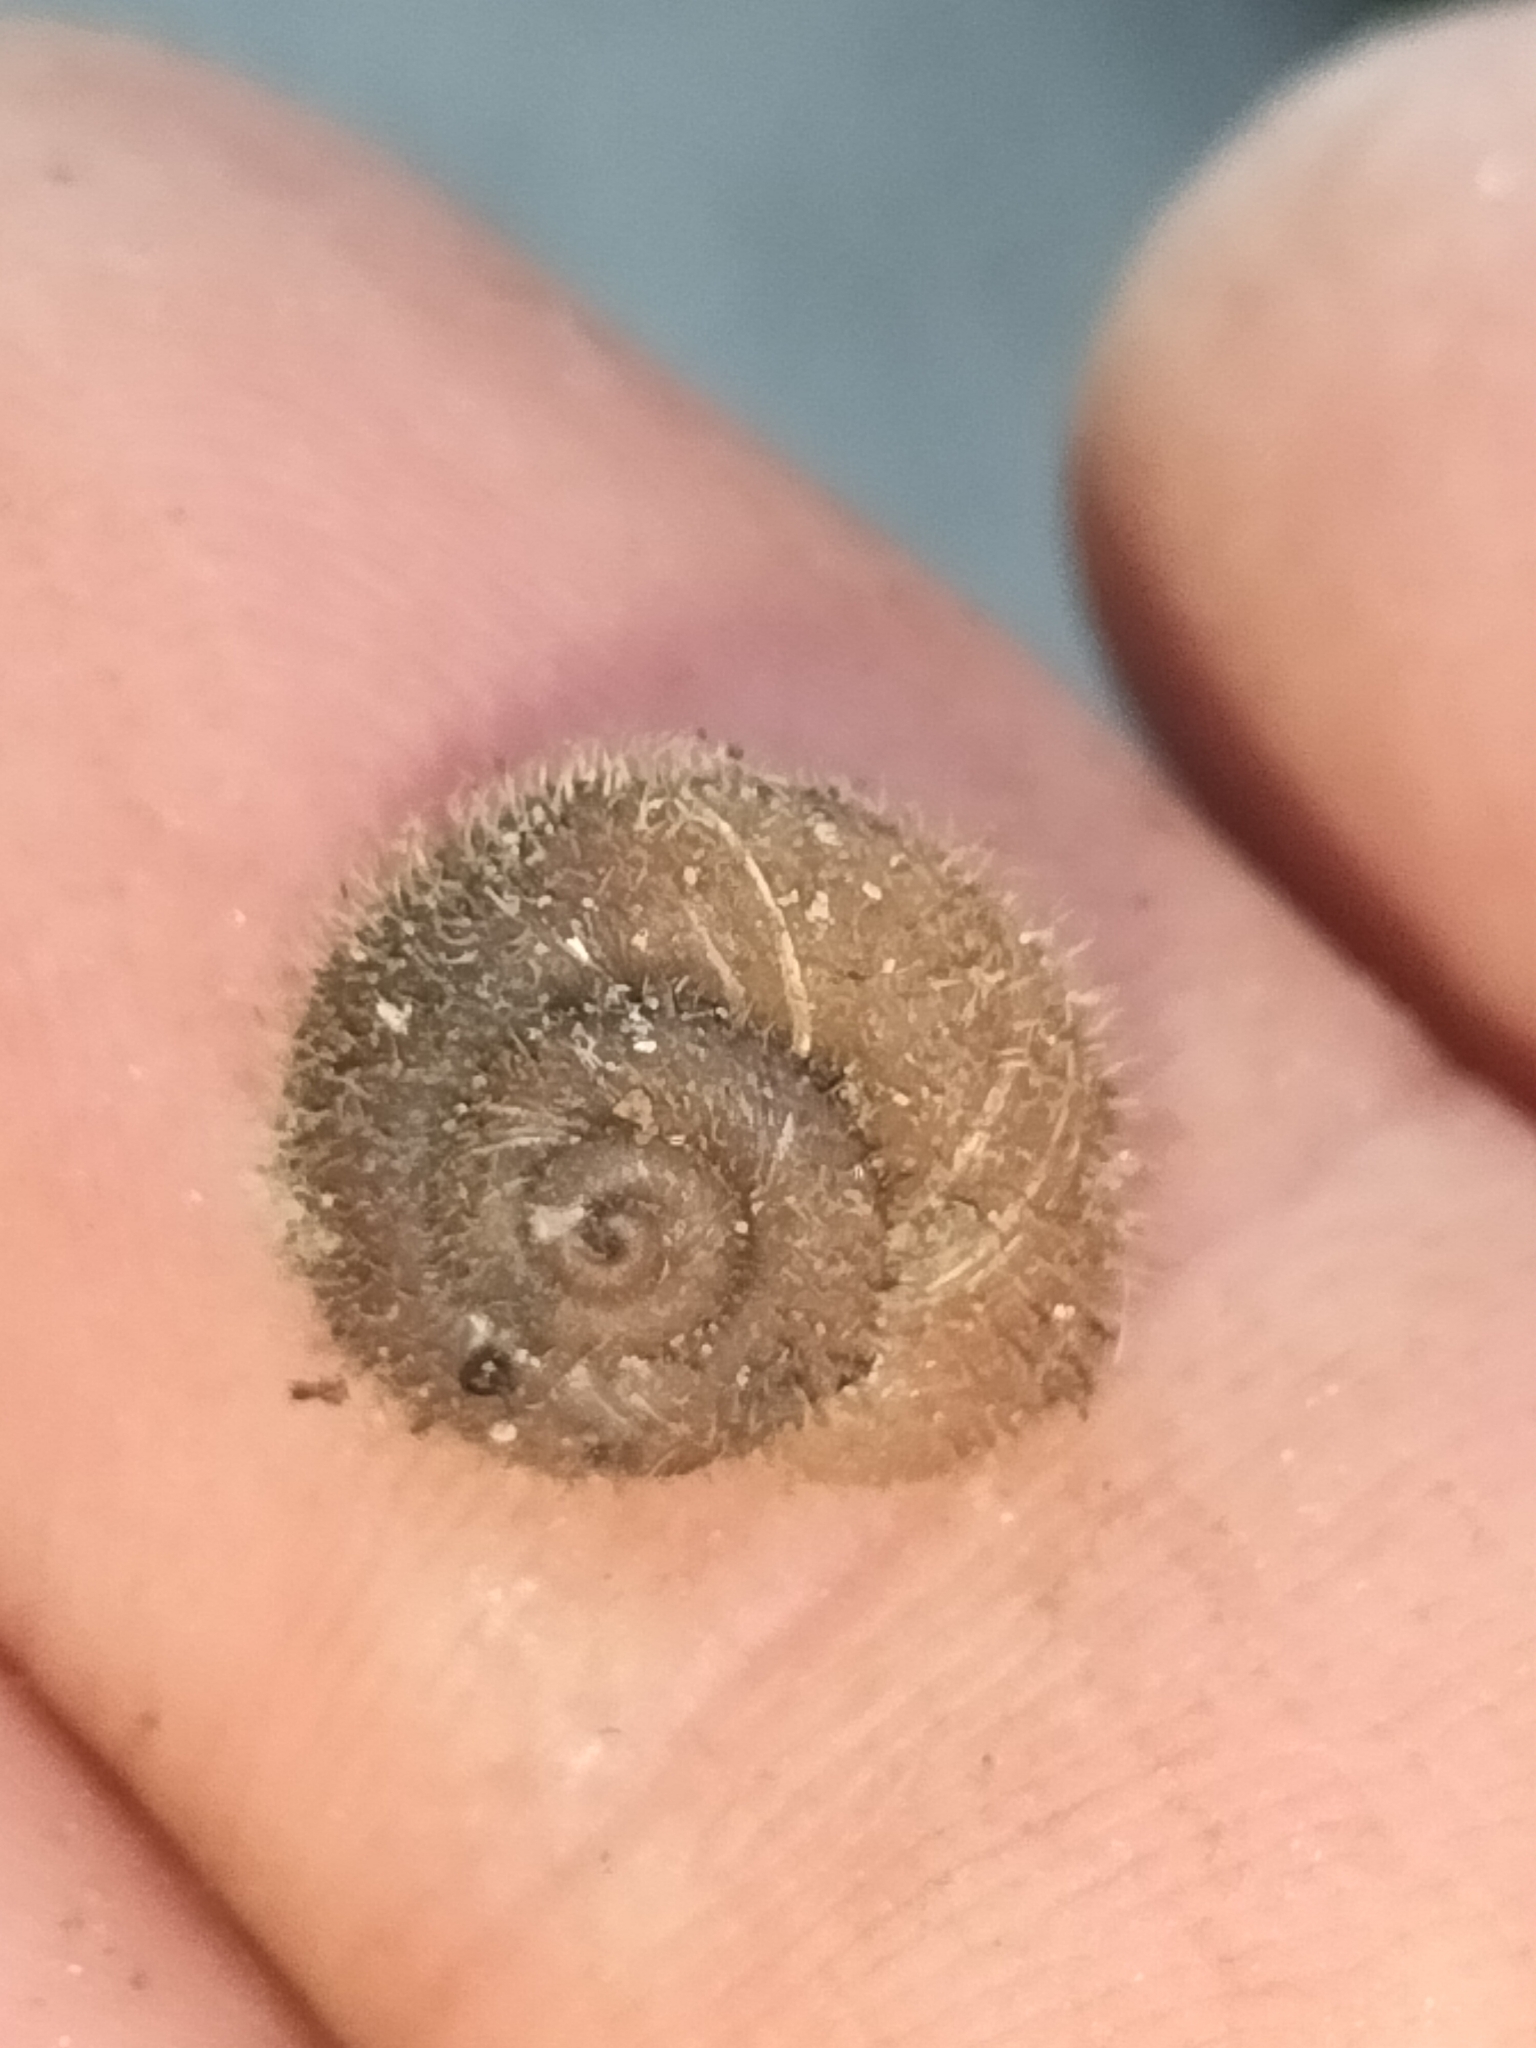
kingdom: Animalia
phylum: Mollusca
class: Gastropoda
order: Stylommatophora
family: Camaenidae
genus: Tolgachloritis
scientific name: Tolgachloritis campbelli
